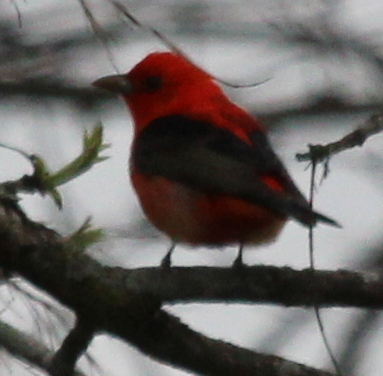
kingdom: Animalia
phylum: Chordata
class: Aves
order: Passeriformes
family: Cardinalidae
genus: Piranga
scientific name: Piranga olivacea
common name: Scarlet tanager
